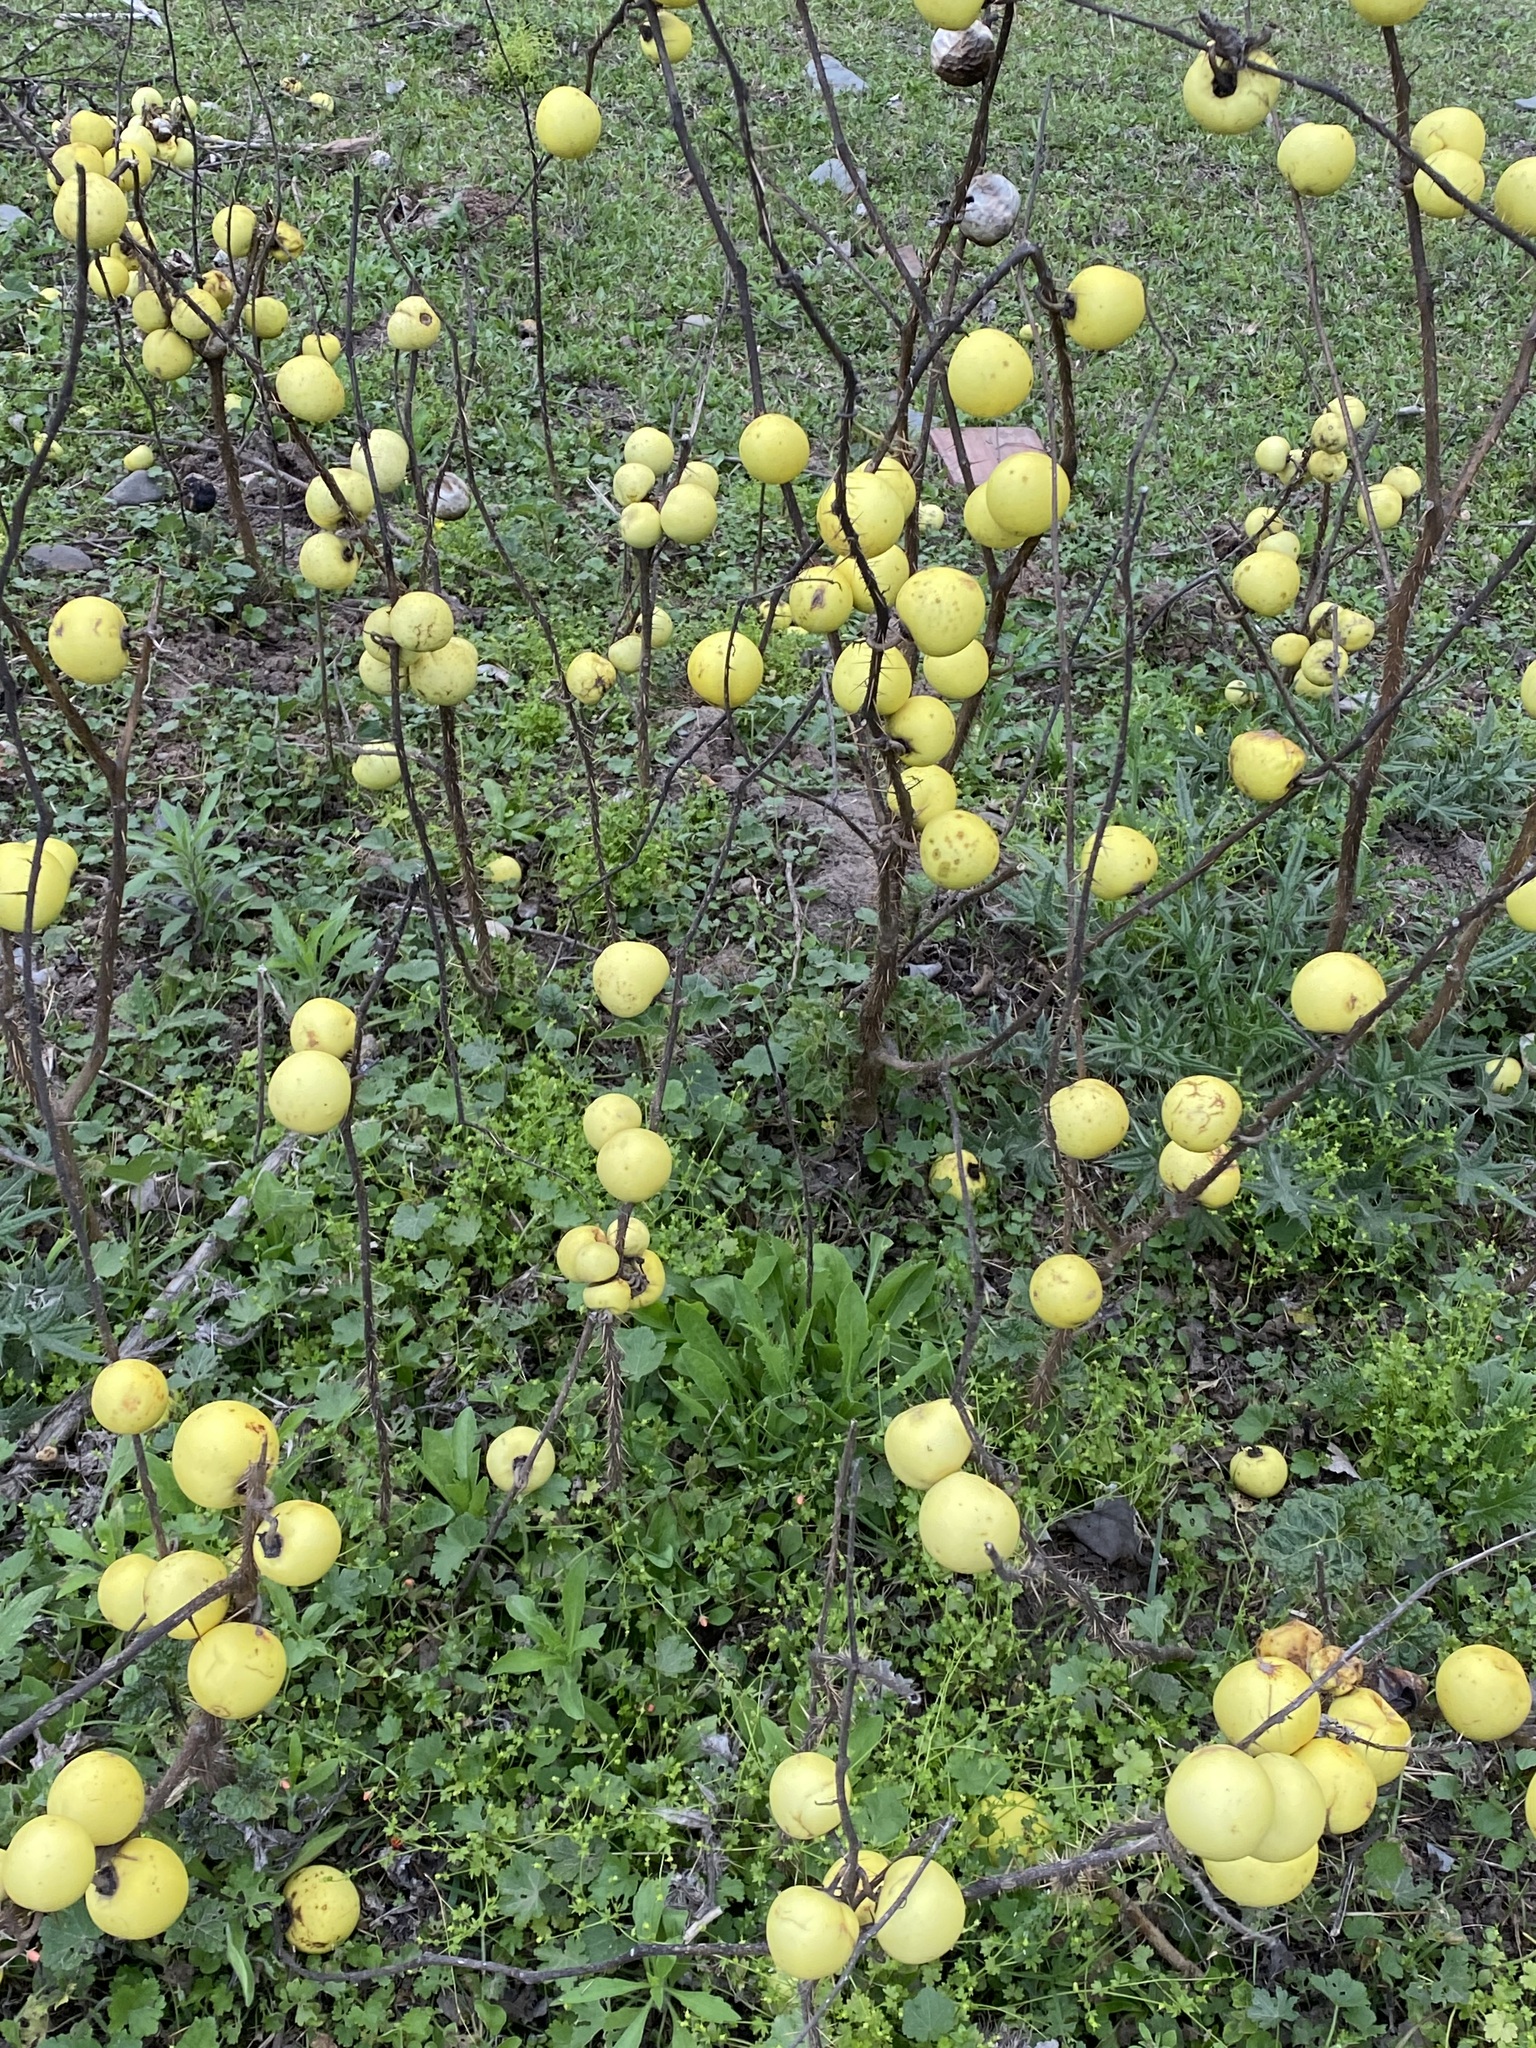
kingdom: Plantae
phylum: Tracheophyta
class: Magnoliopsida
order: Solanales
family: Solanaceae
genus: Solanum
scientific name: Solanum palinacanthum
